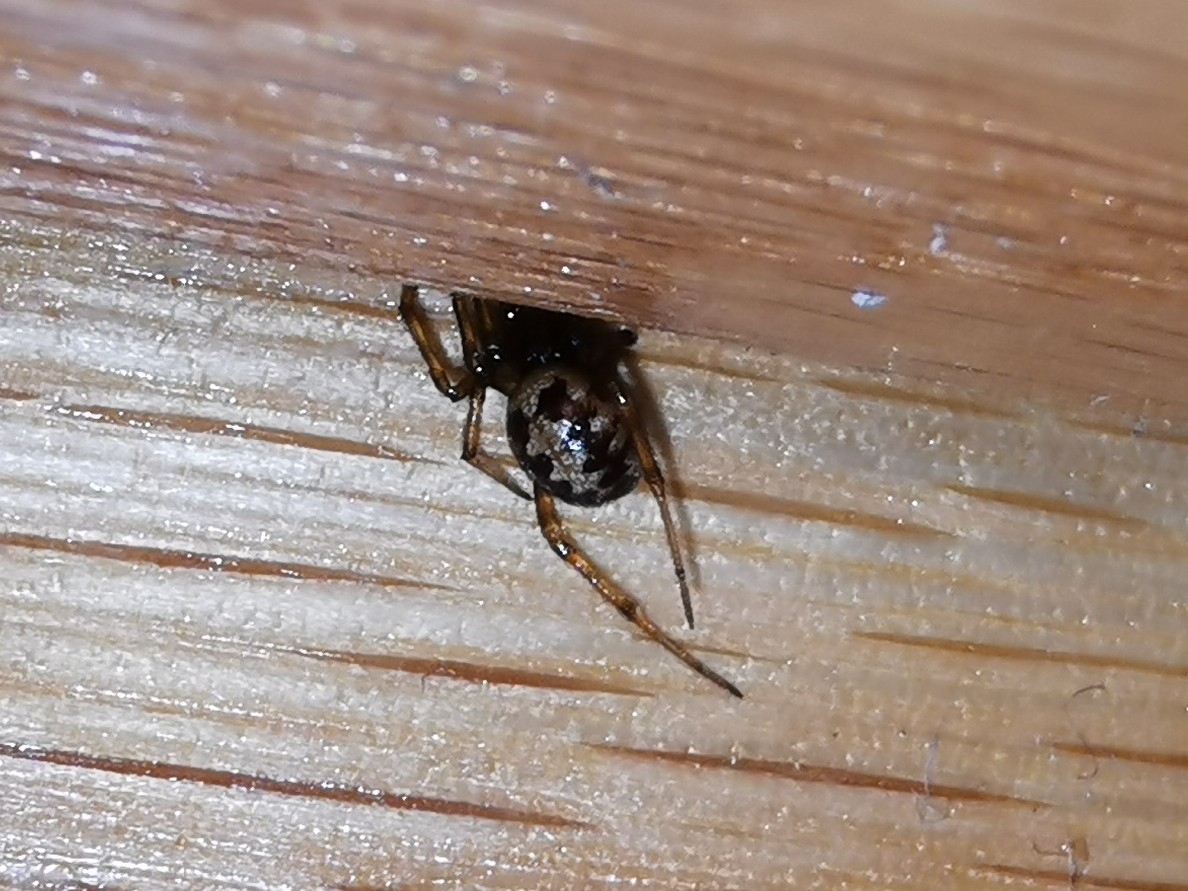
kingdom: Animalia
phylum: Arthropoda
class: Arachnida
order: Araneae
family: Theridiidae
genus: Steatoda
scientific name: Steatoda triangulosa
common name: Triangulate bud spider
